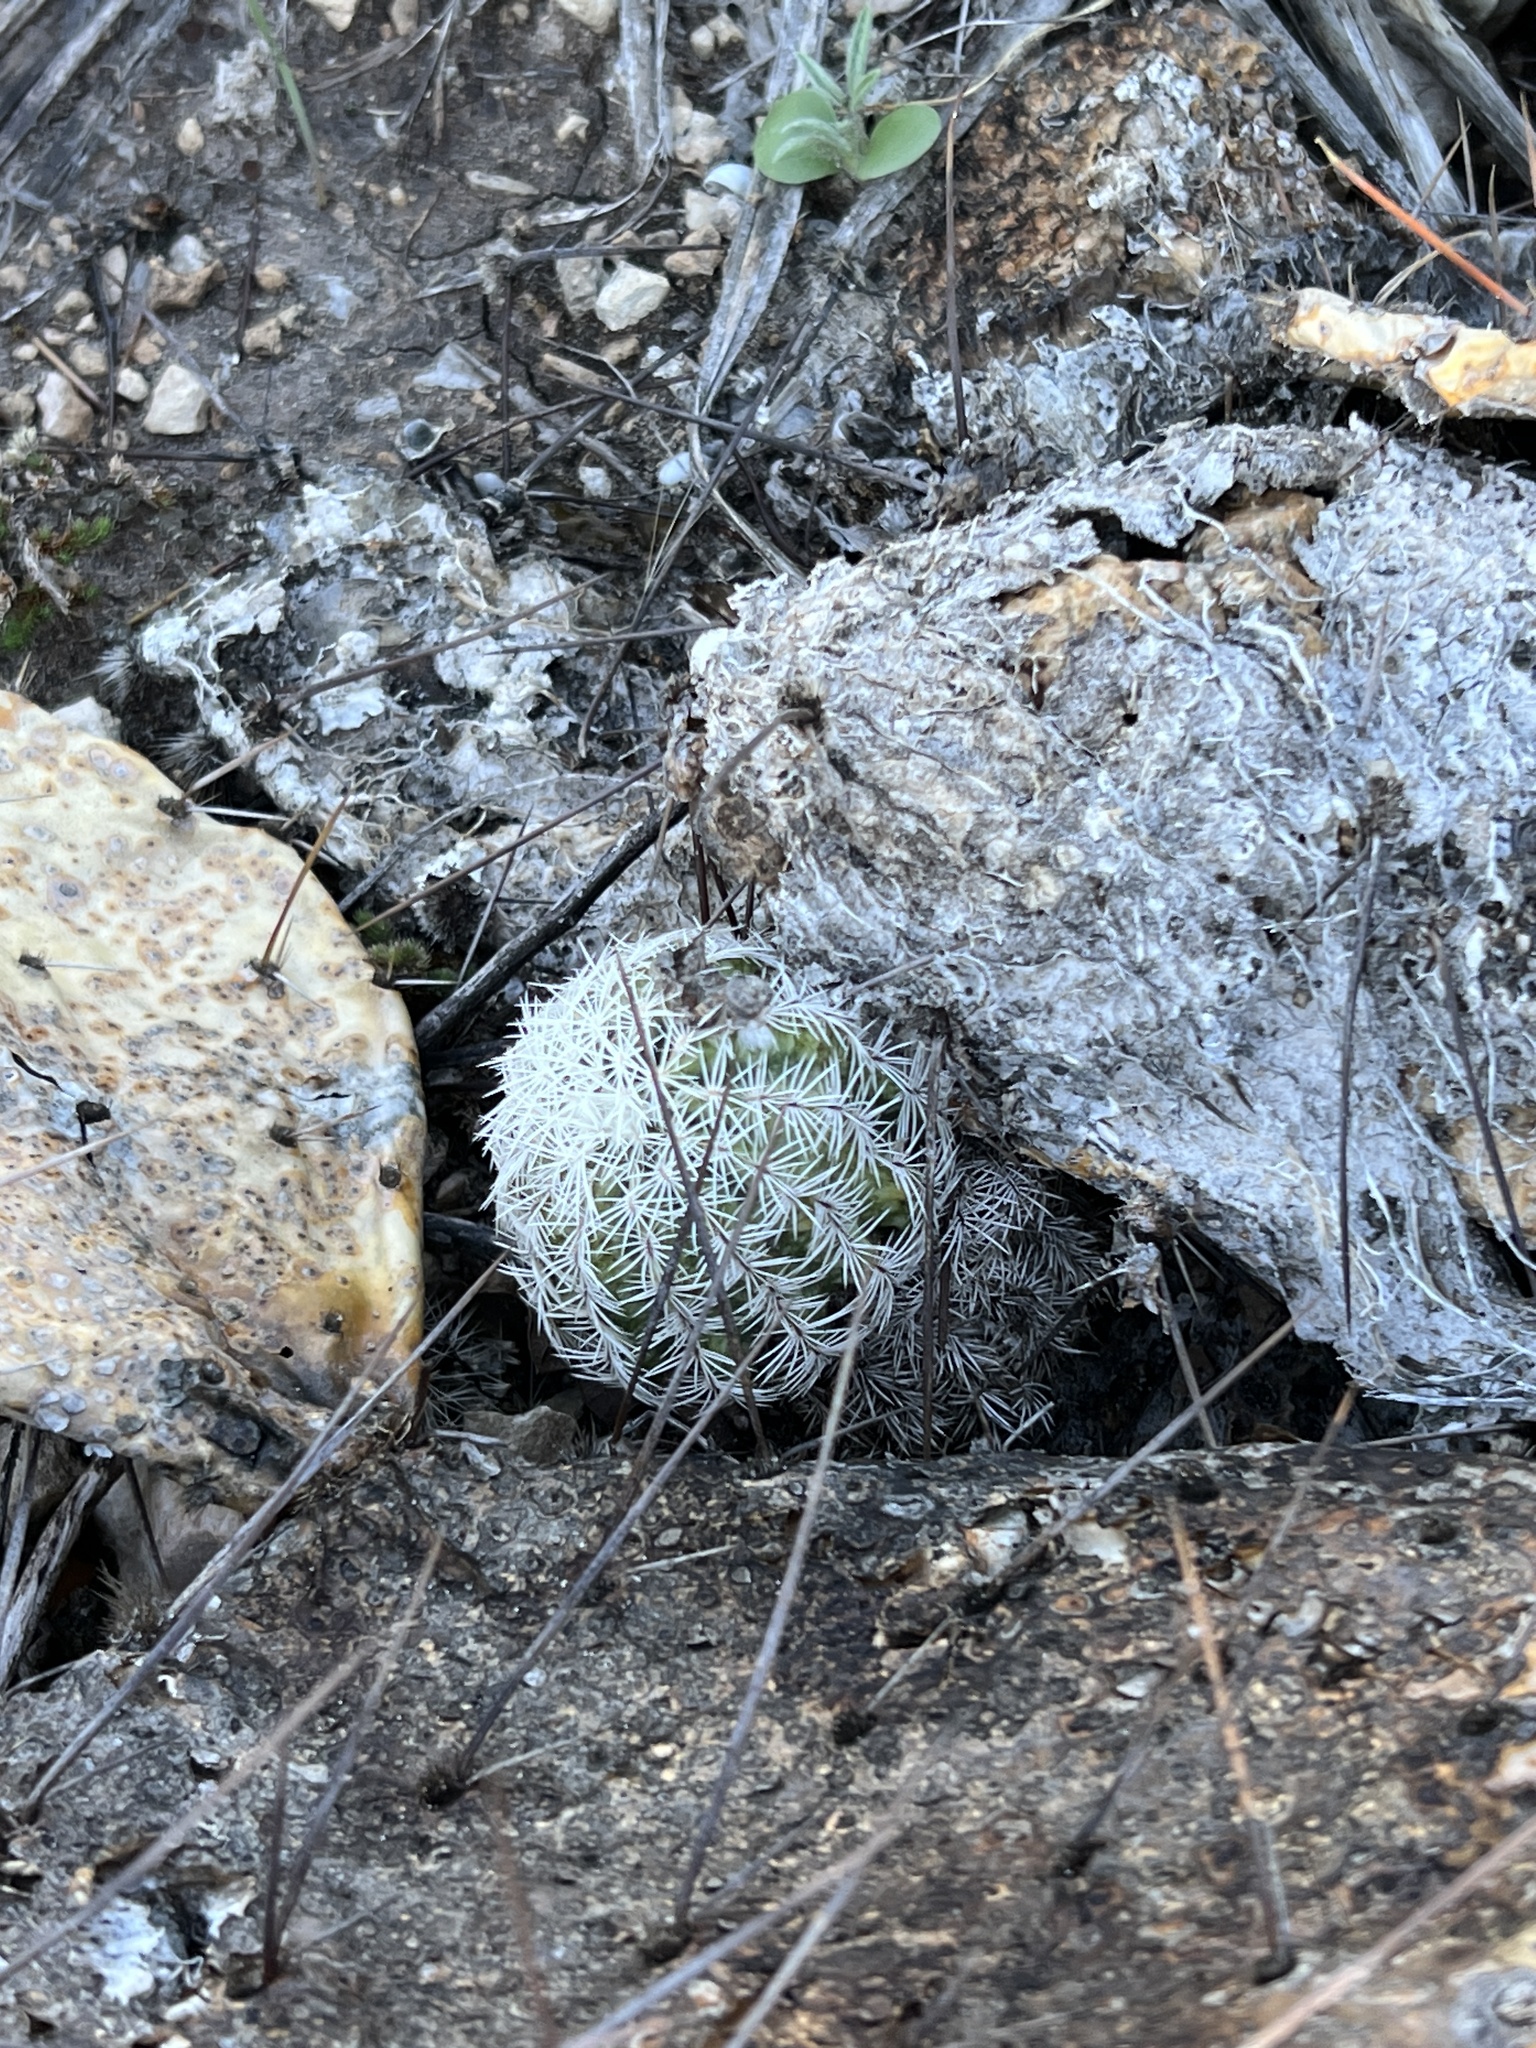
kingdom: Plantae
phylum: Tracheophyta
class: Magnoliopsida
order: Caryophyllales
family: Cactaceae
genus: Echinocereus
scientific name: Echinocereus reichenbachii
